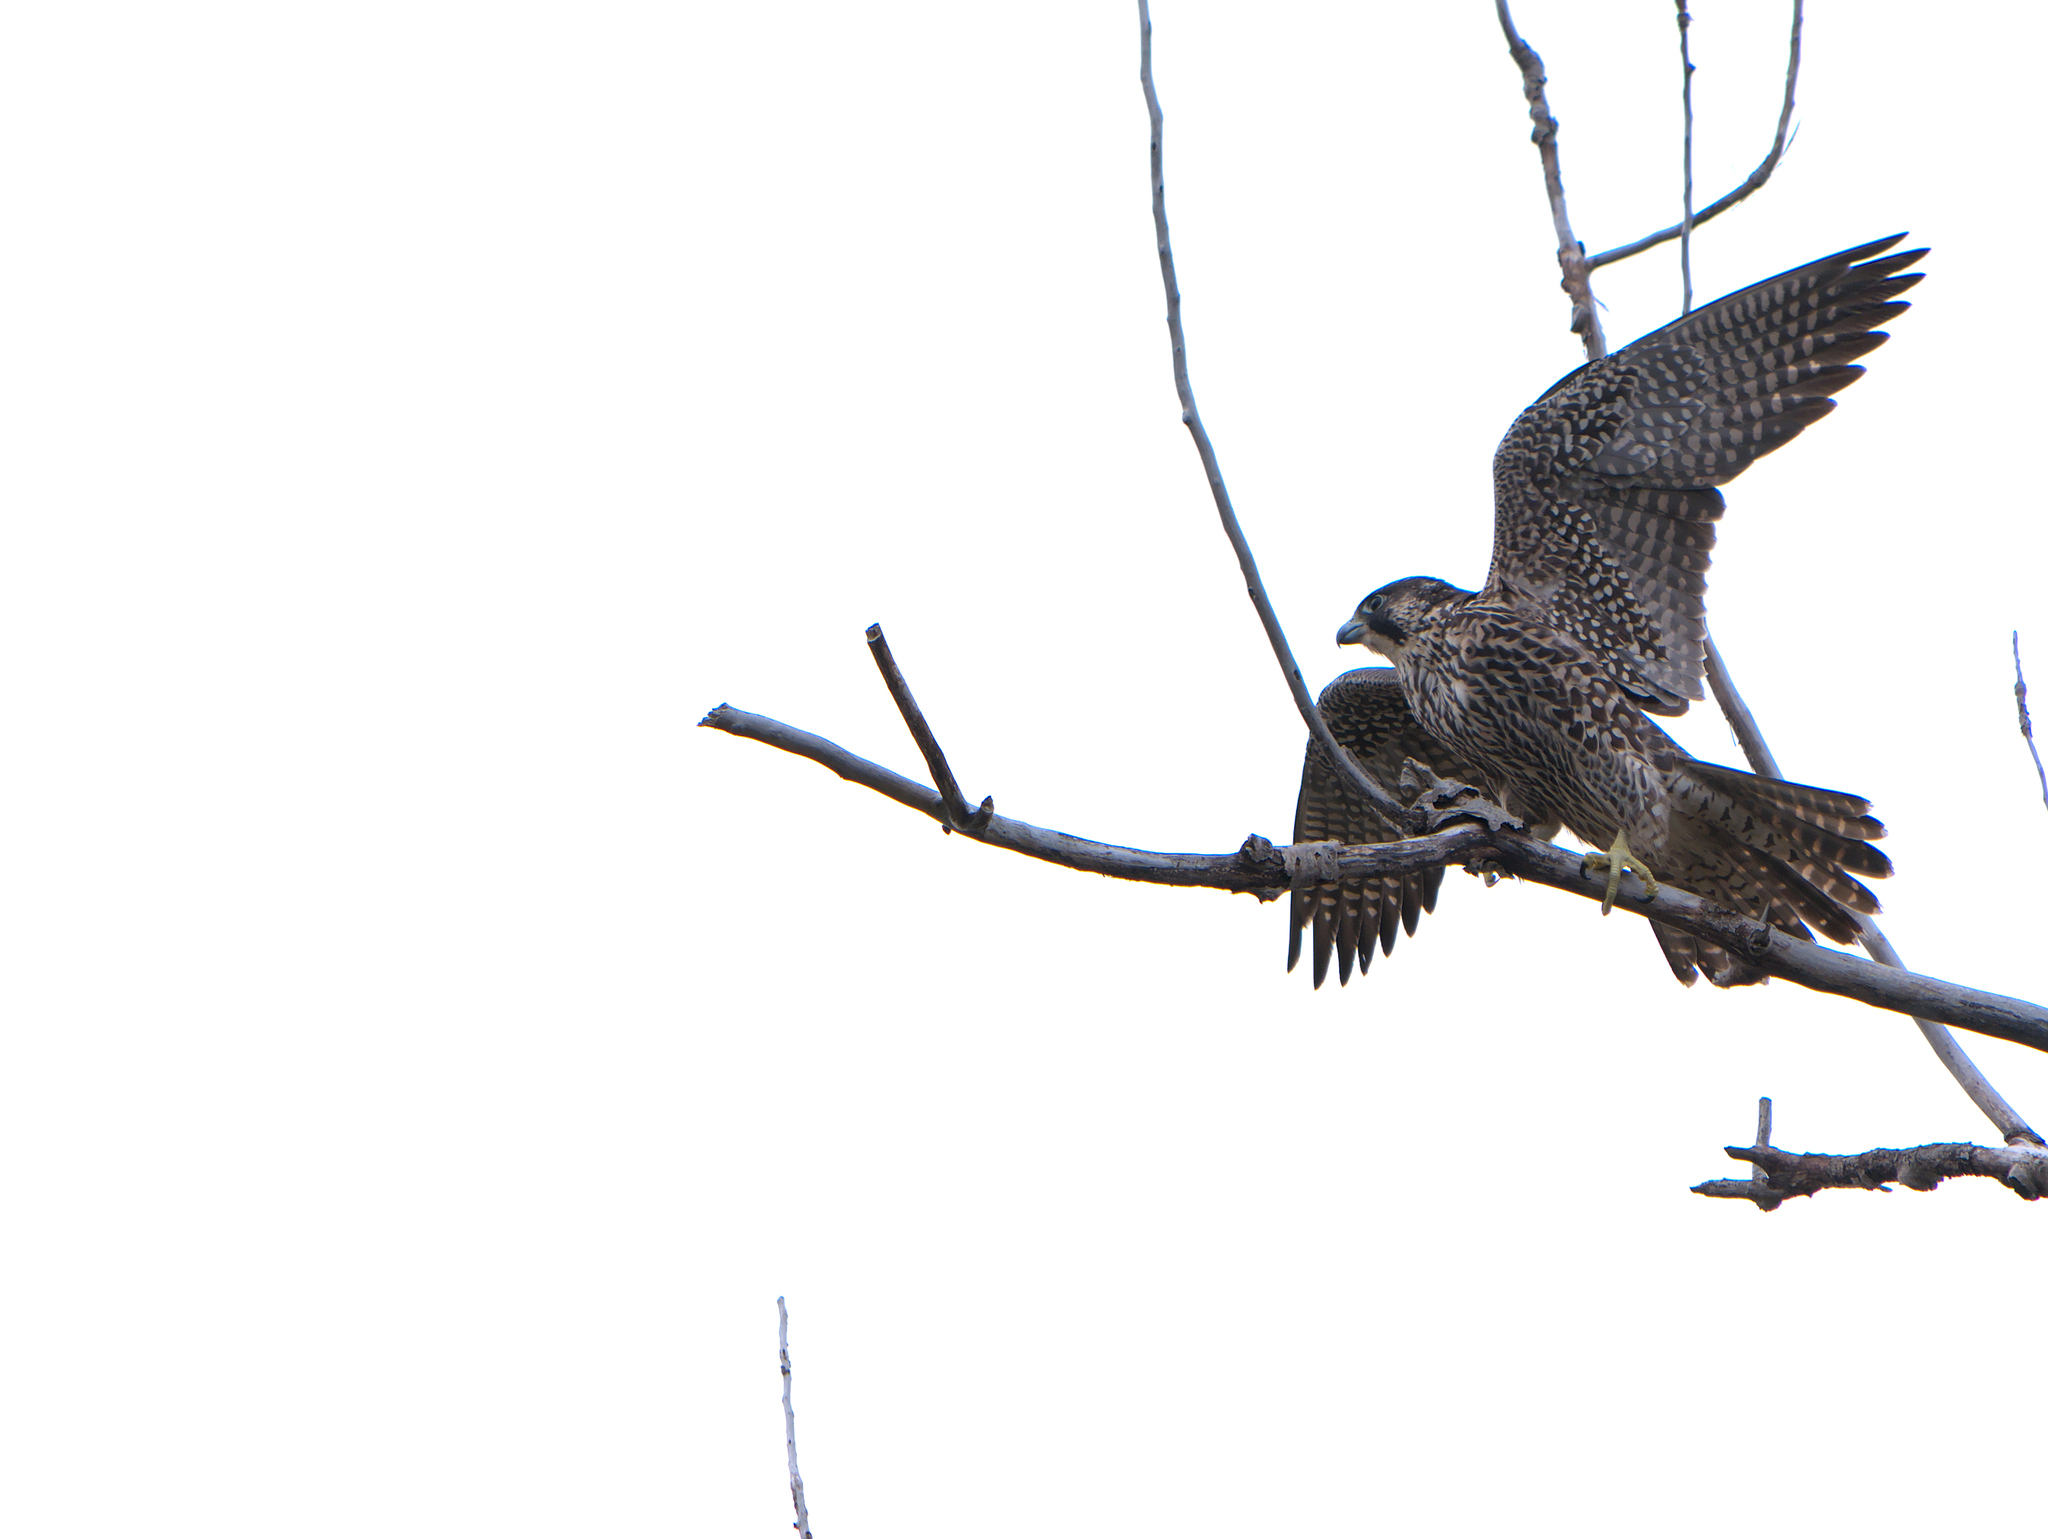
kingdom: Animalia
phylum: Chordata
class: Aves
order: Falconiformes
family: Falconidae
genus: Falco
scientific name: Falco peregrinus
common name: Peregrine falcon
